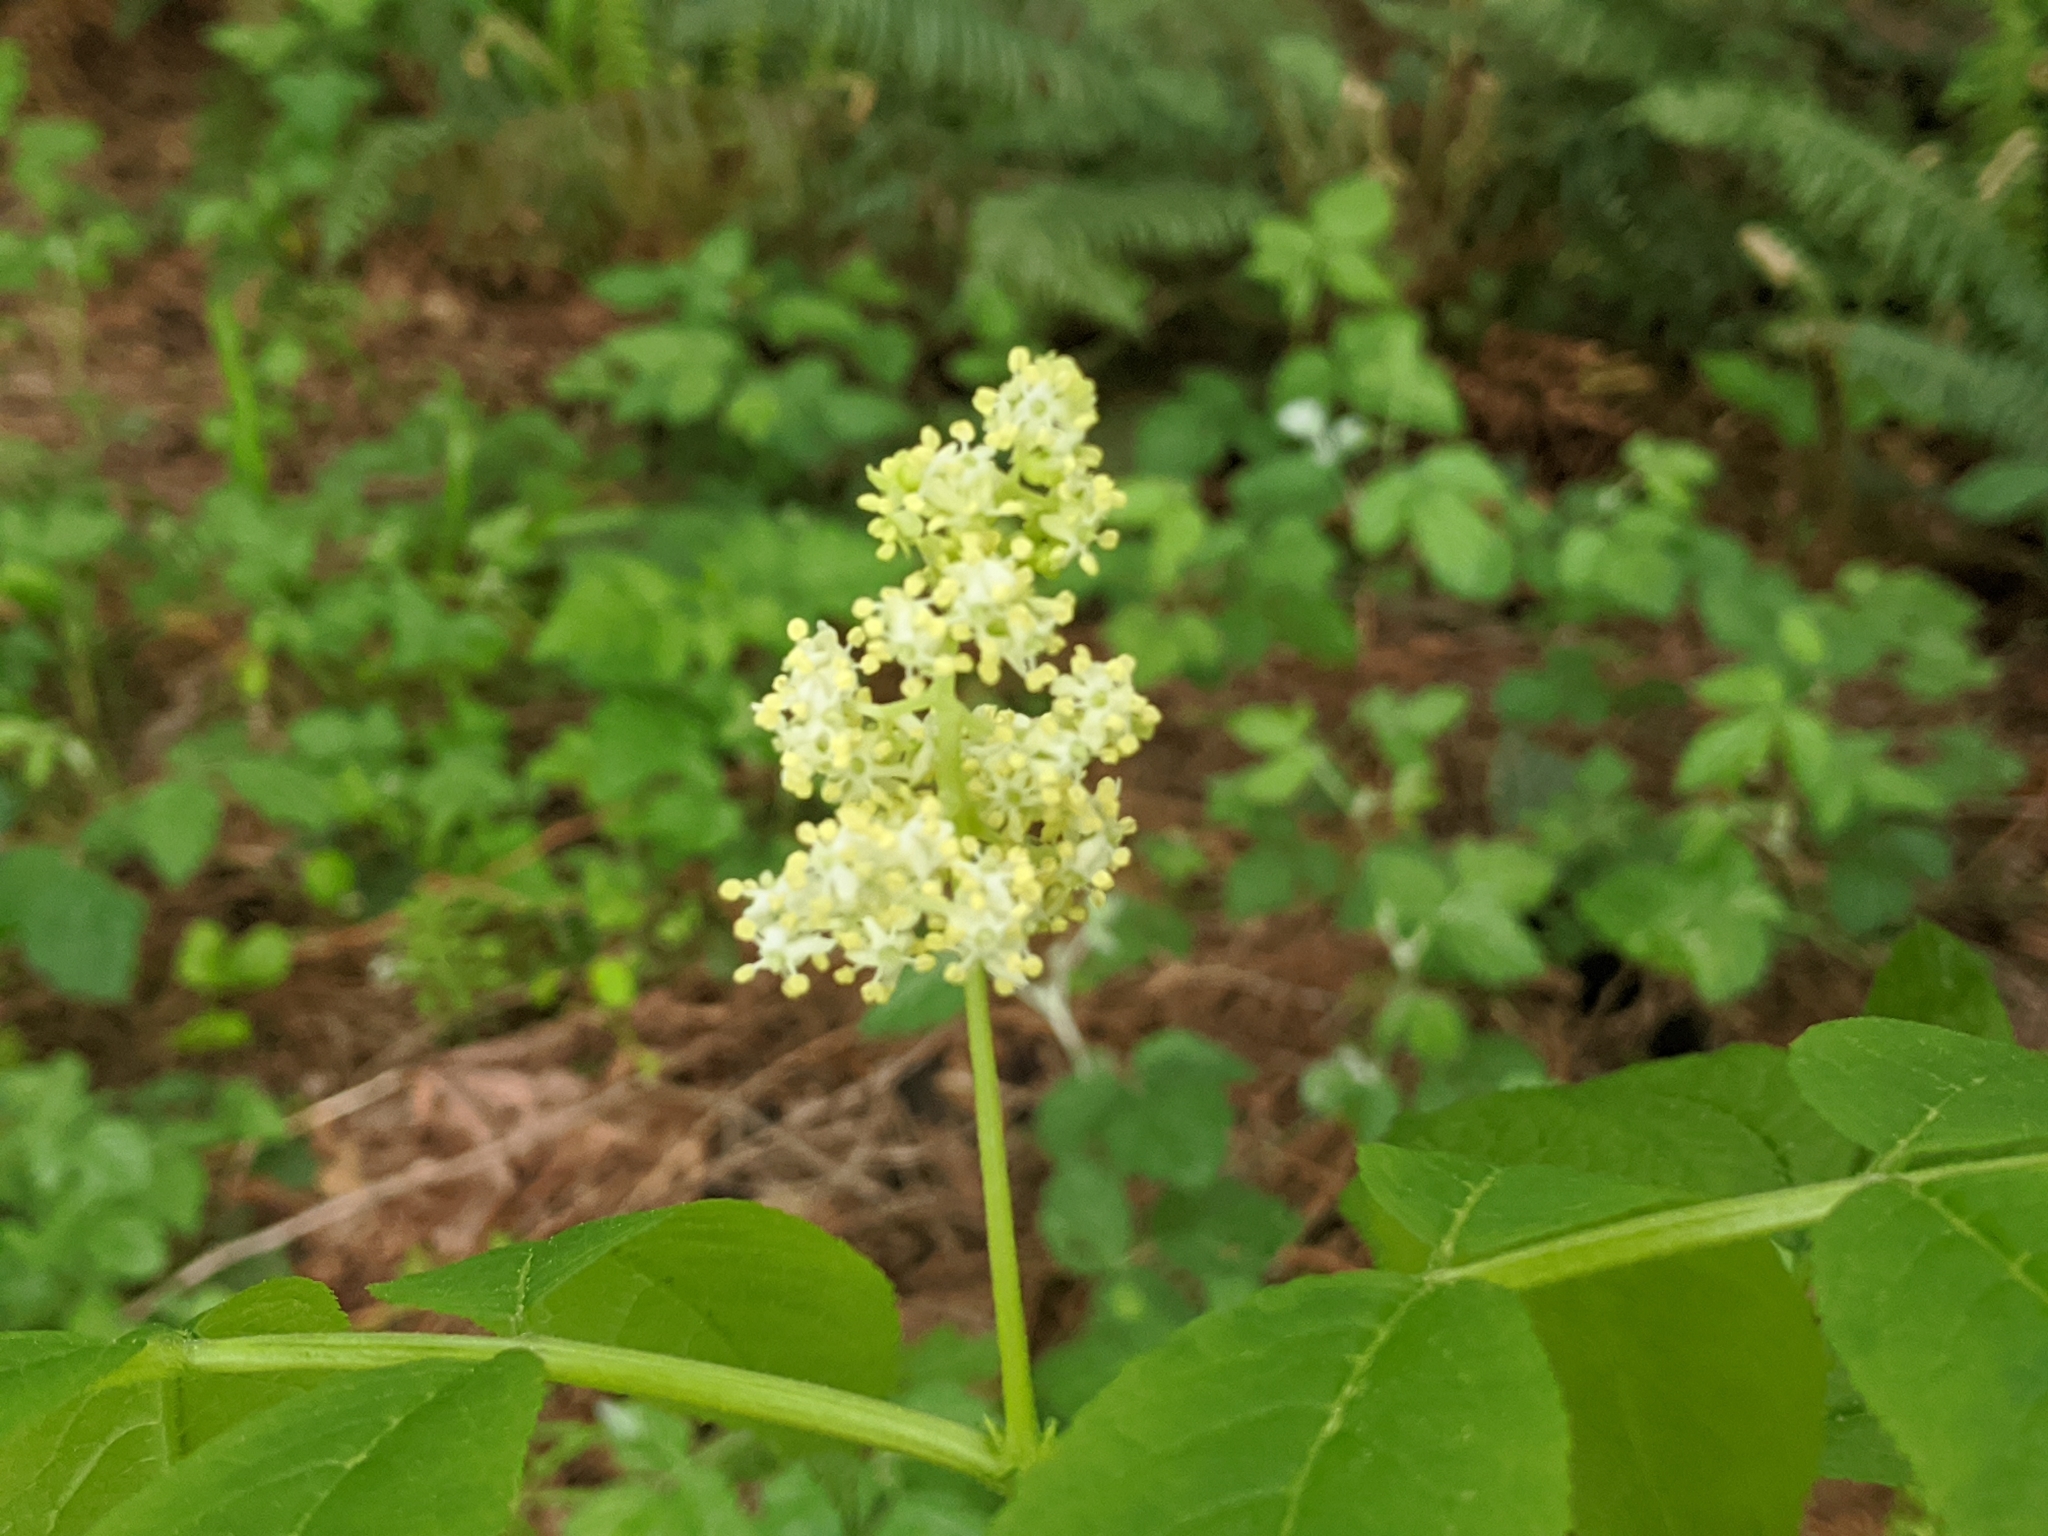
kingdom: Plantae
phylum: Tracheophyta
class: Magnoliopsida
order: Dipsacales
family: Viburnaceae
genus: Sambucus
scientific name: Sambucus racemosa
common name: Red-berried elder
